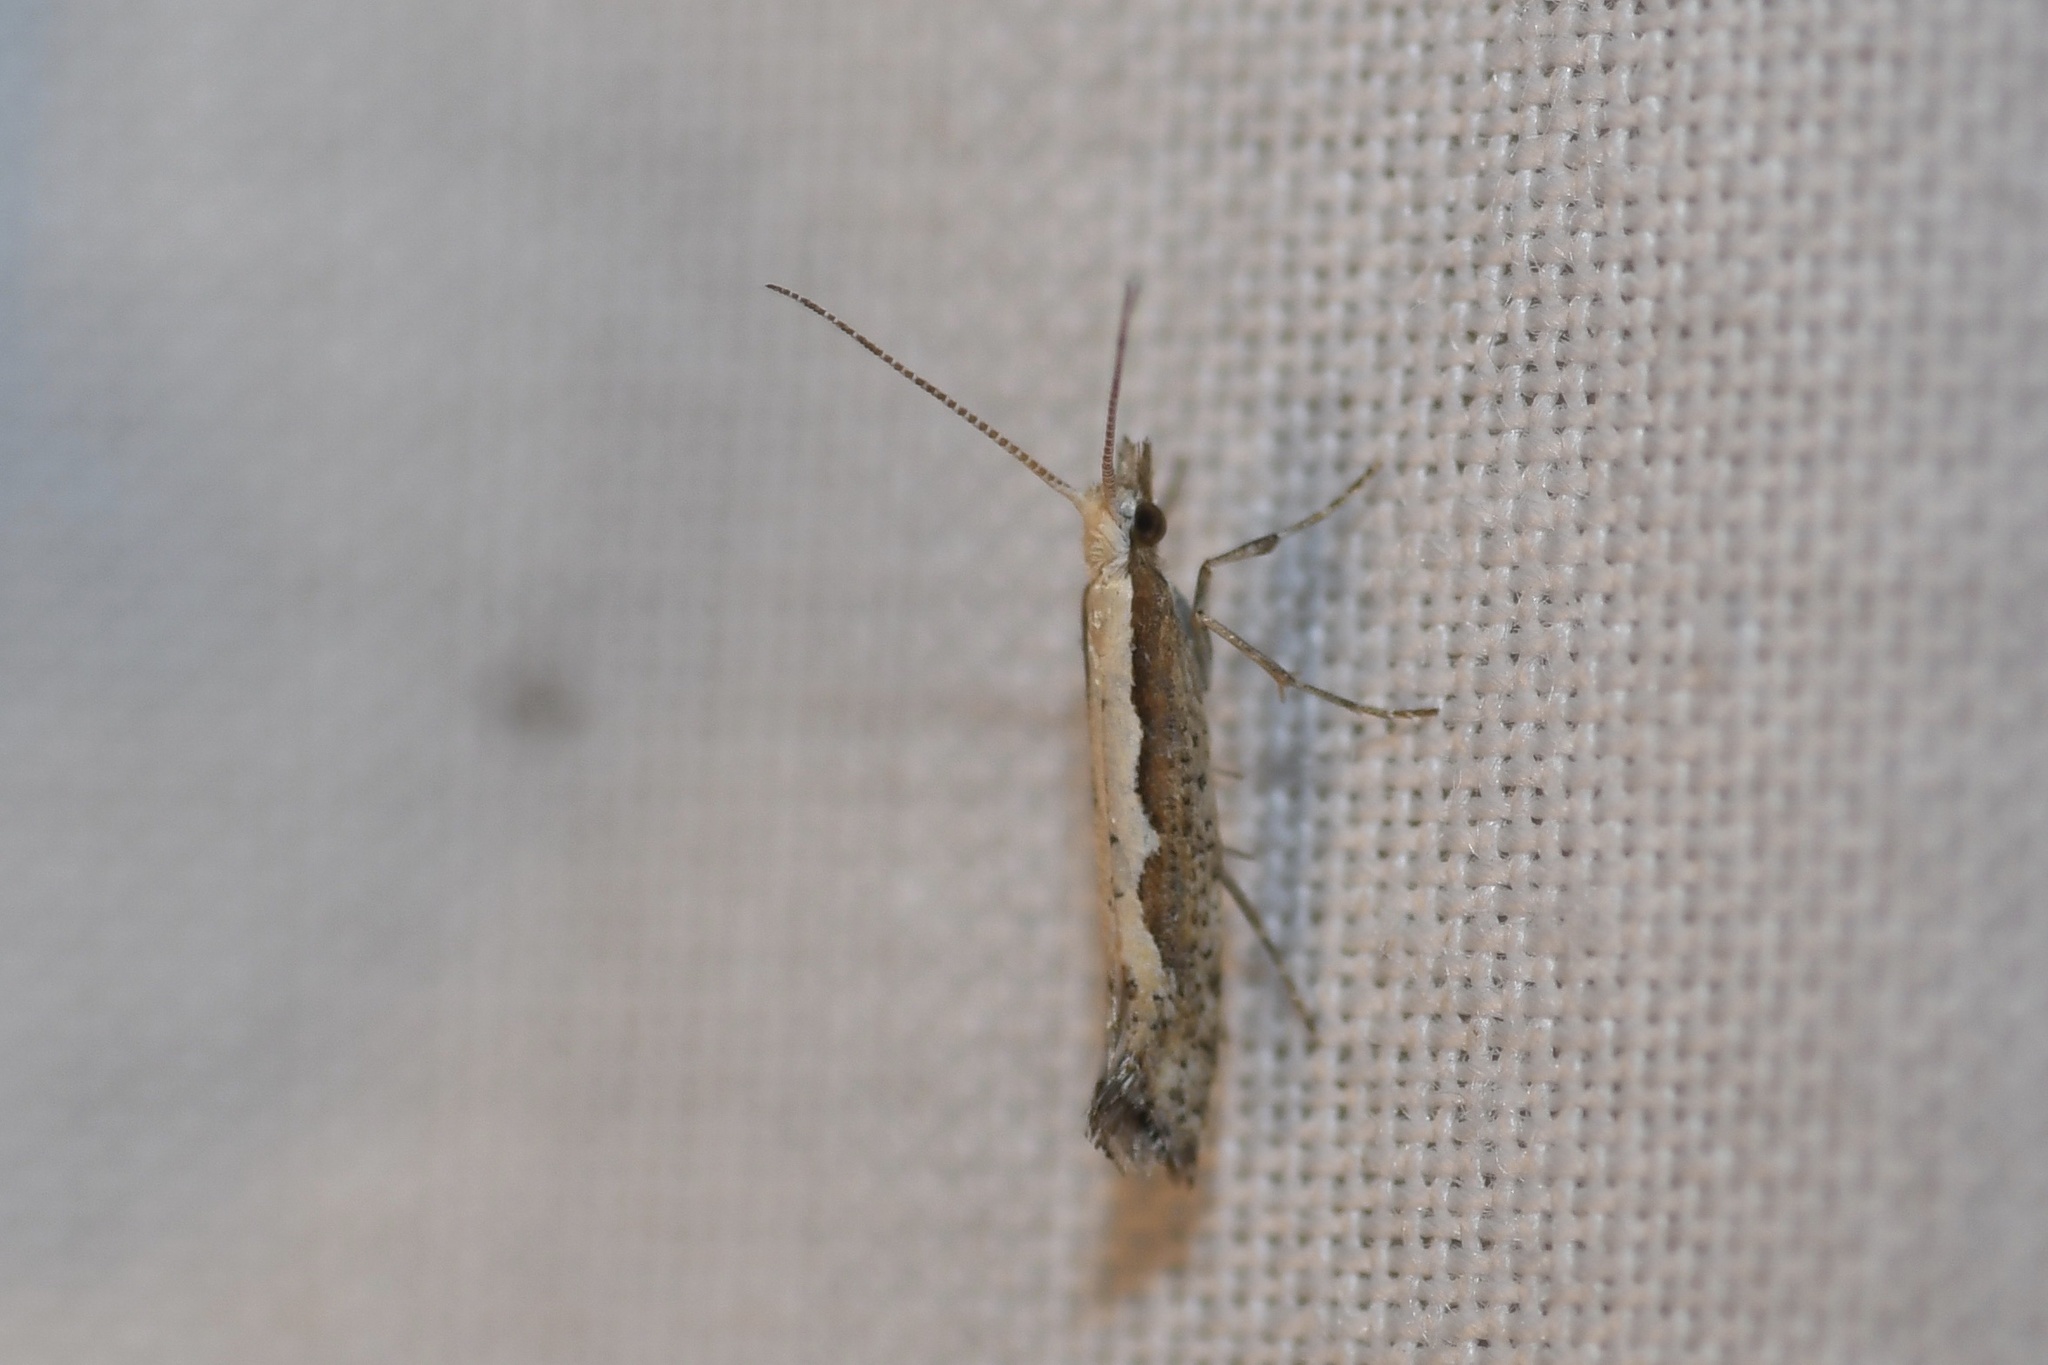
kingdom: Animalia
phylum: Arthropoda
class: Insecta
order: Lepidoptera
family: Plutellidae
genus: Plutella
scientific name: Plutella xylostella
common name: Diamond-back moth
